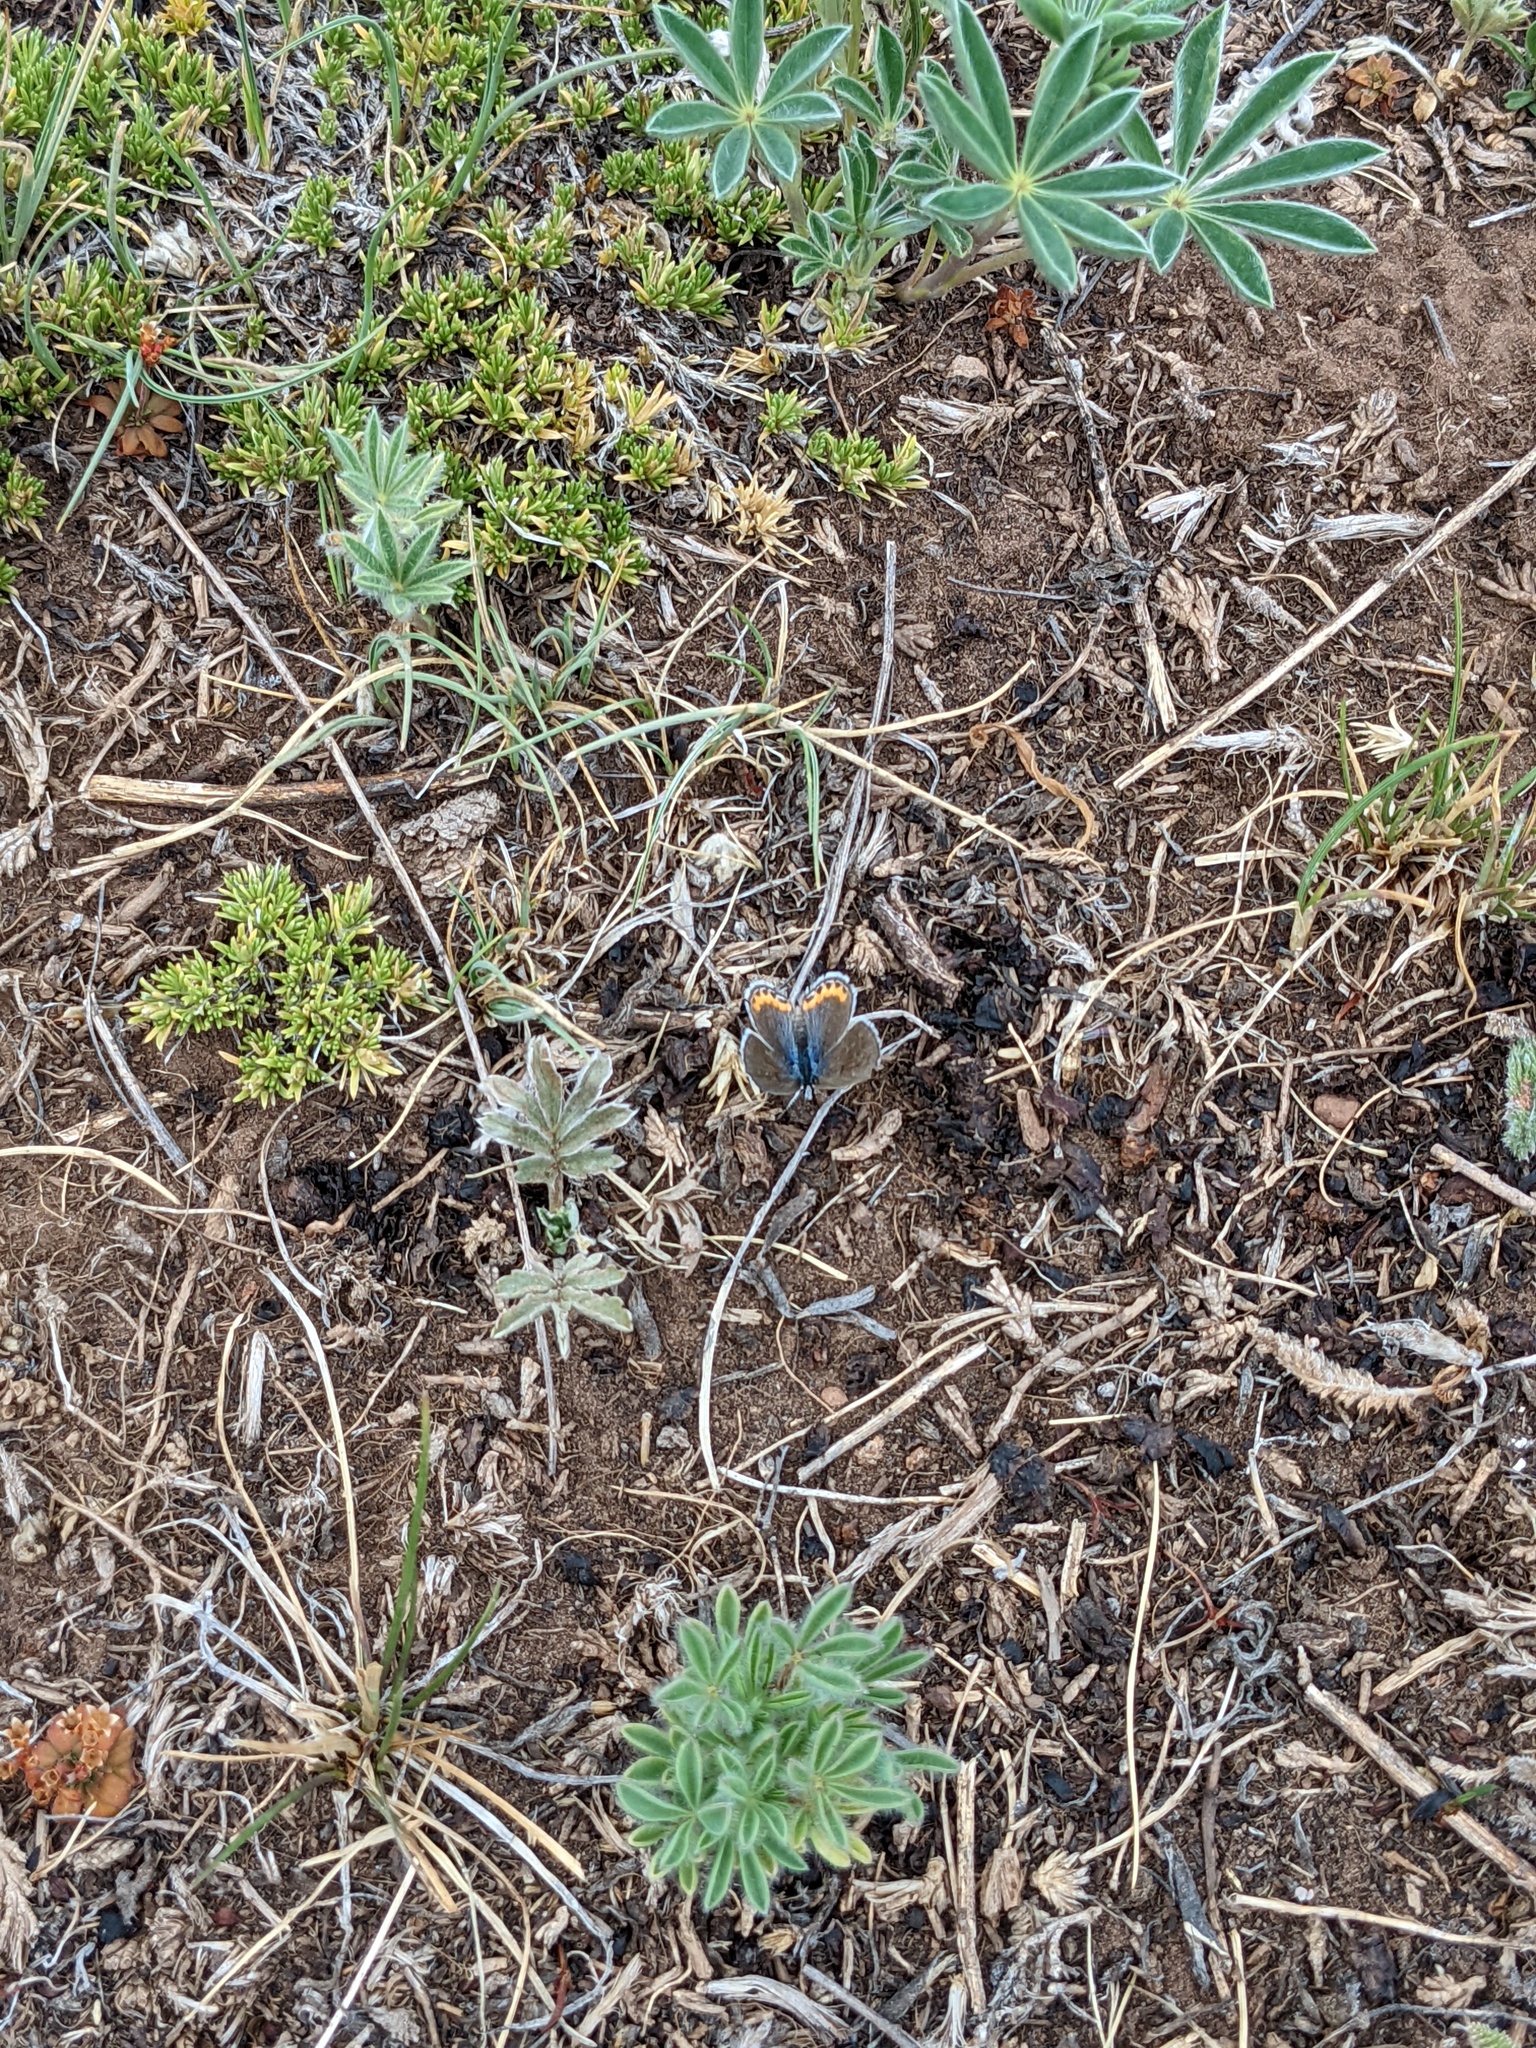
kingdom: Animalia
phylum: Arthropoda
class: Insecta
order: Lepidoptera
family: Lycaenidae
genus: Icaricia
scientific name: Icaricia lupini
